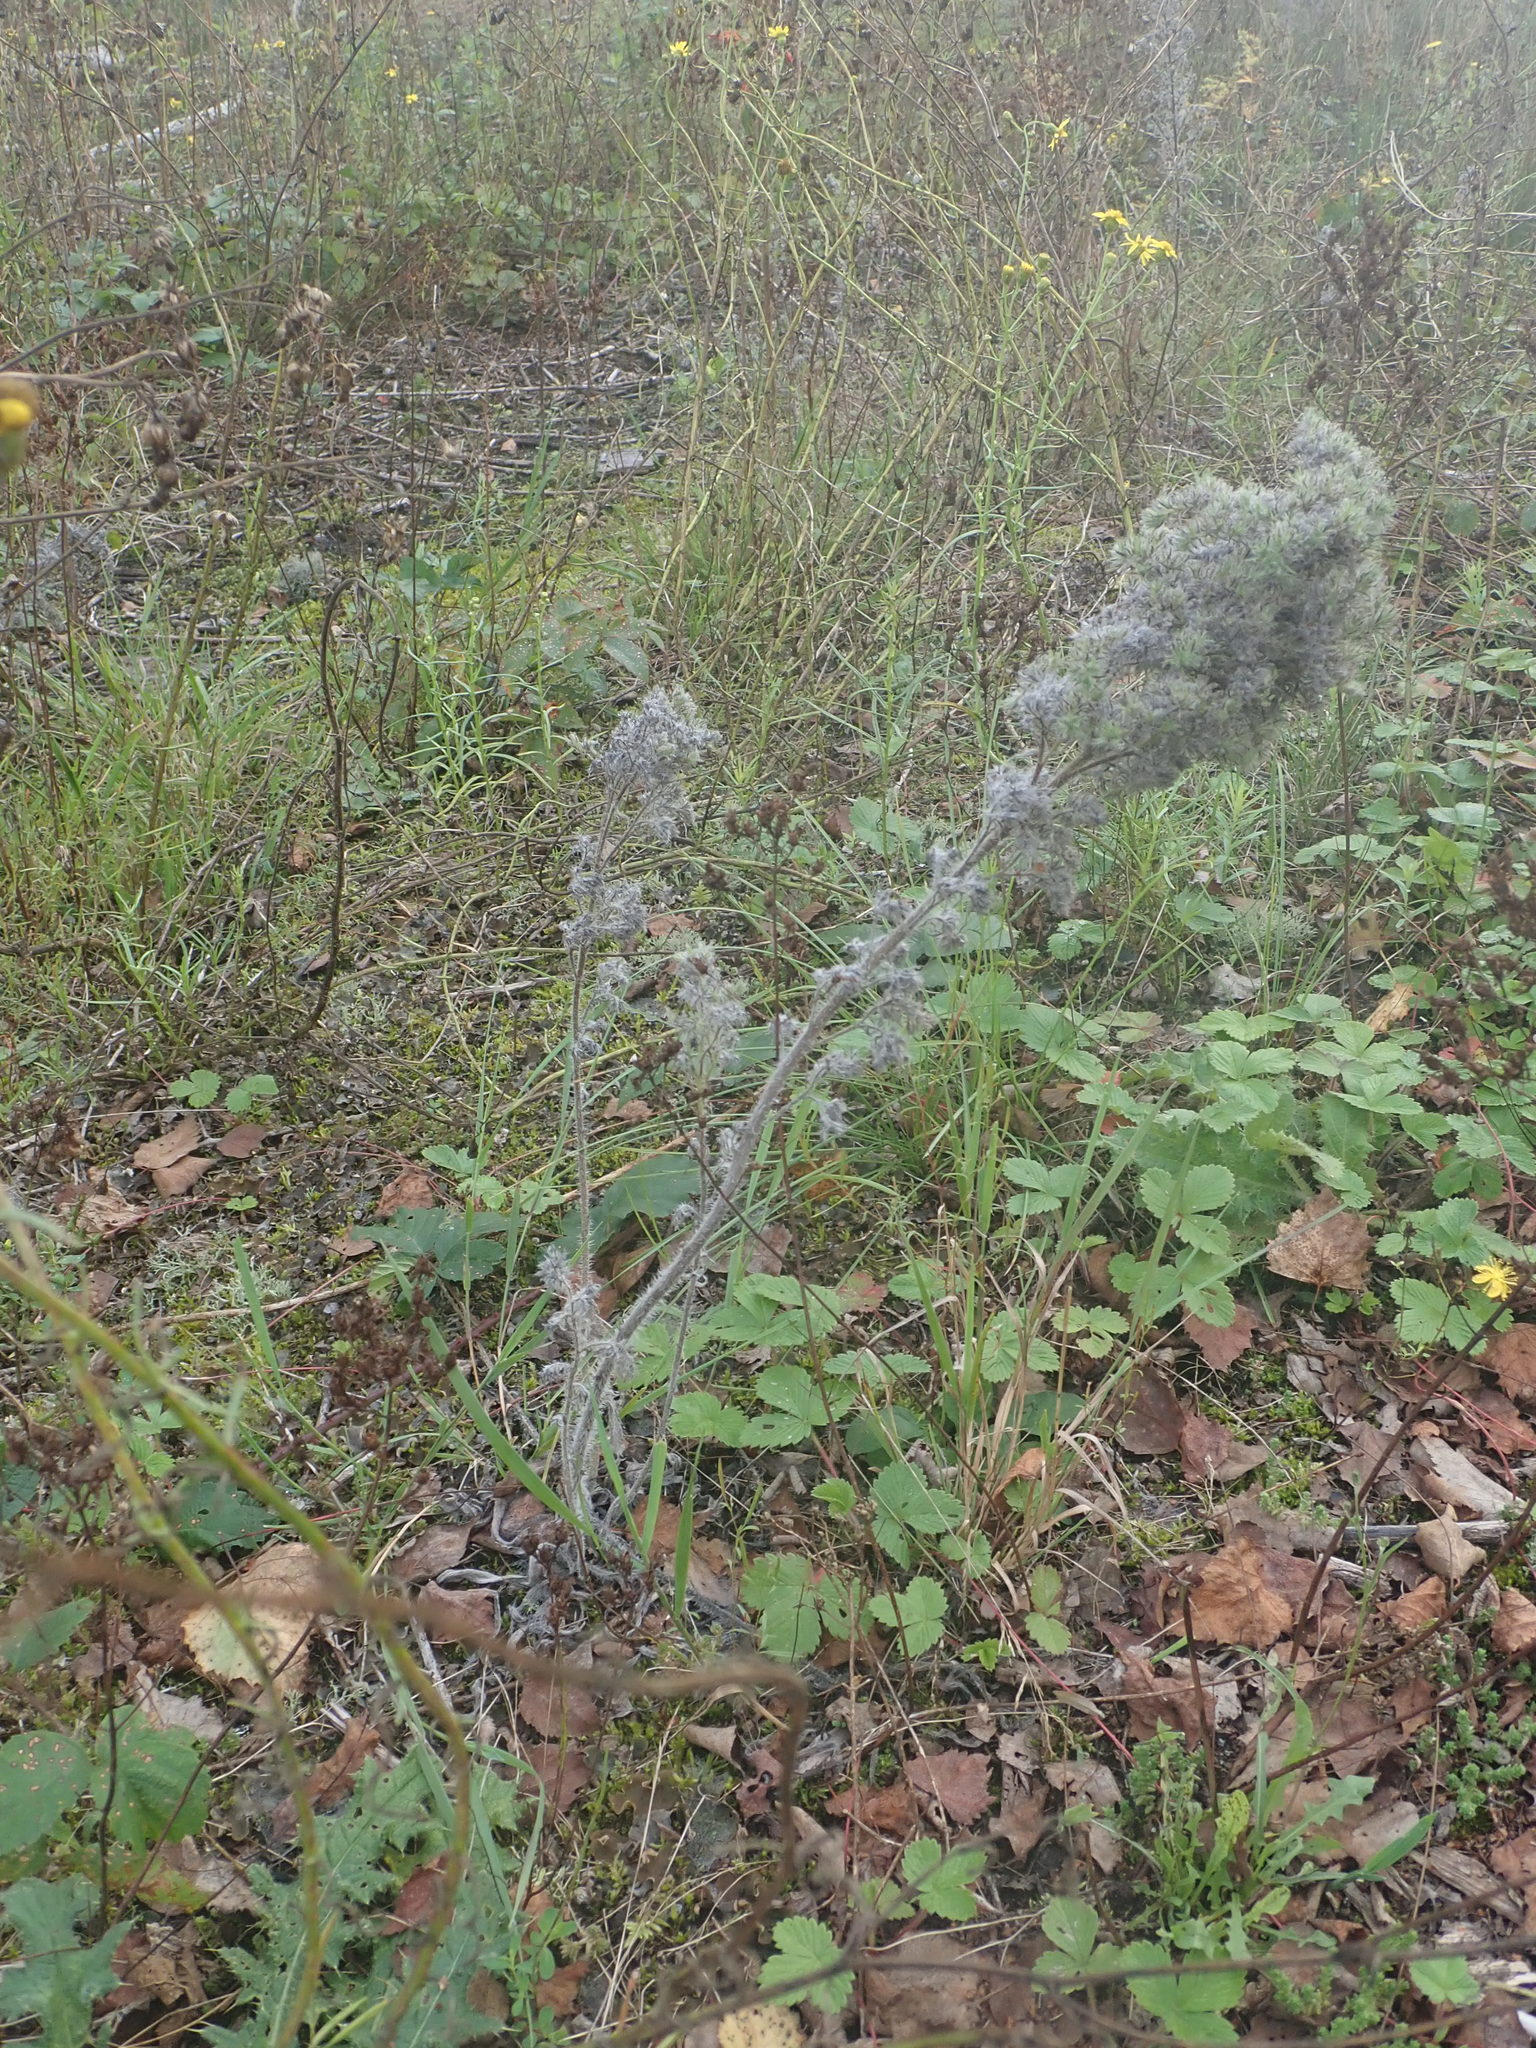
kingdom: Animalia
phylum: Arthropoda
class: Arachnida
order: Trombidiformes
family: Eriophyidae
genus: Aceria
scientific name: Aceria echii
